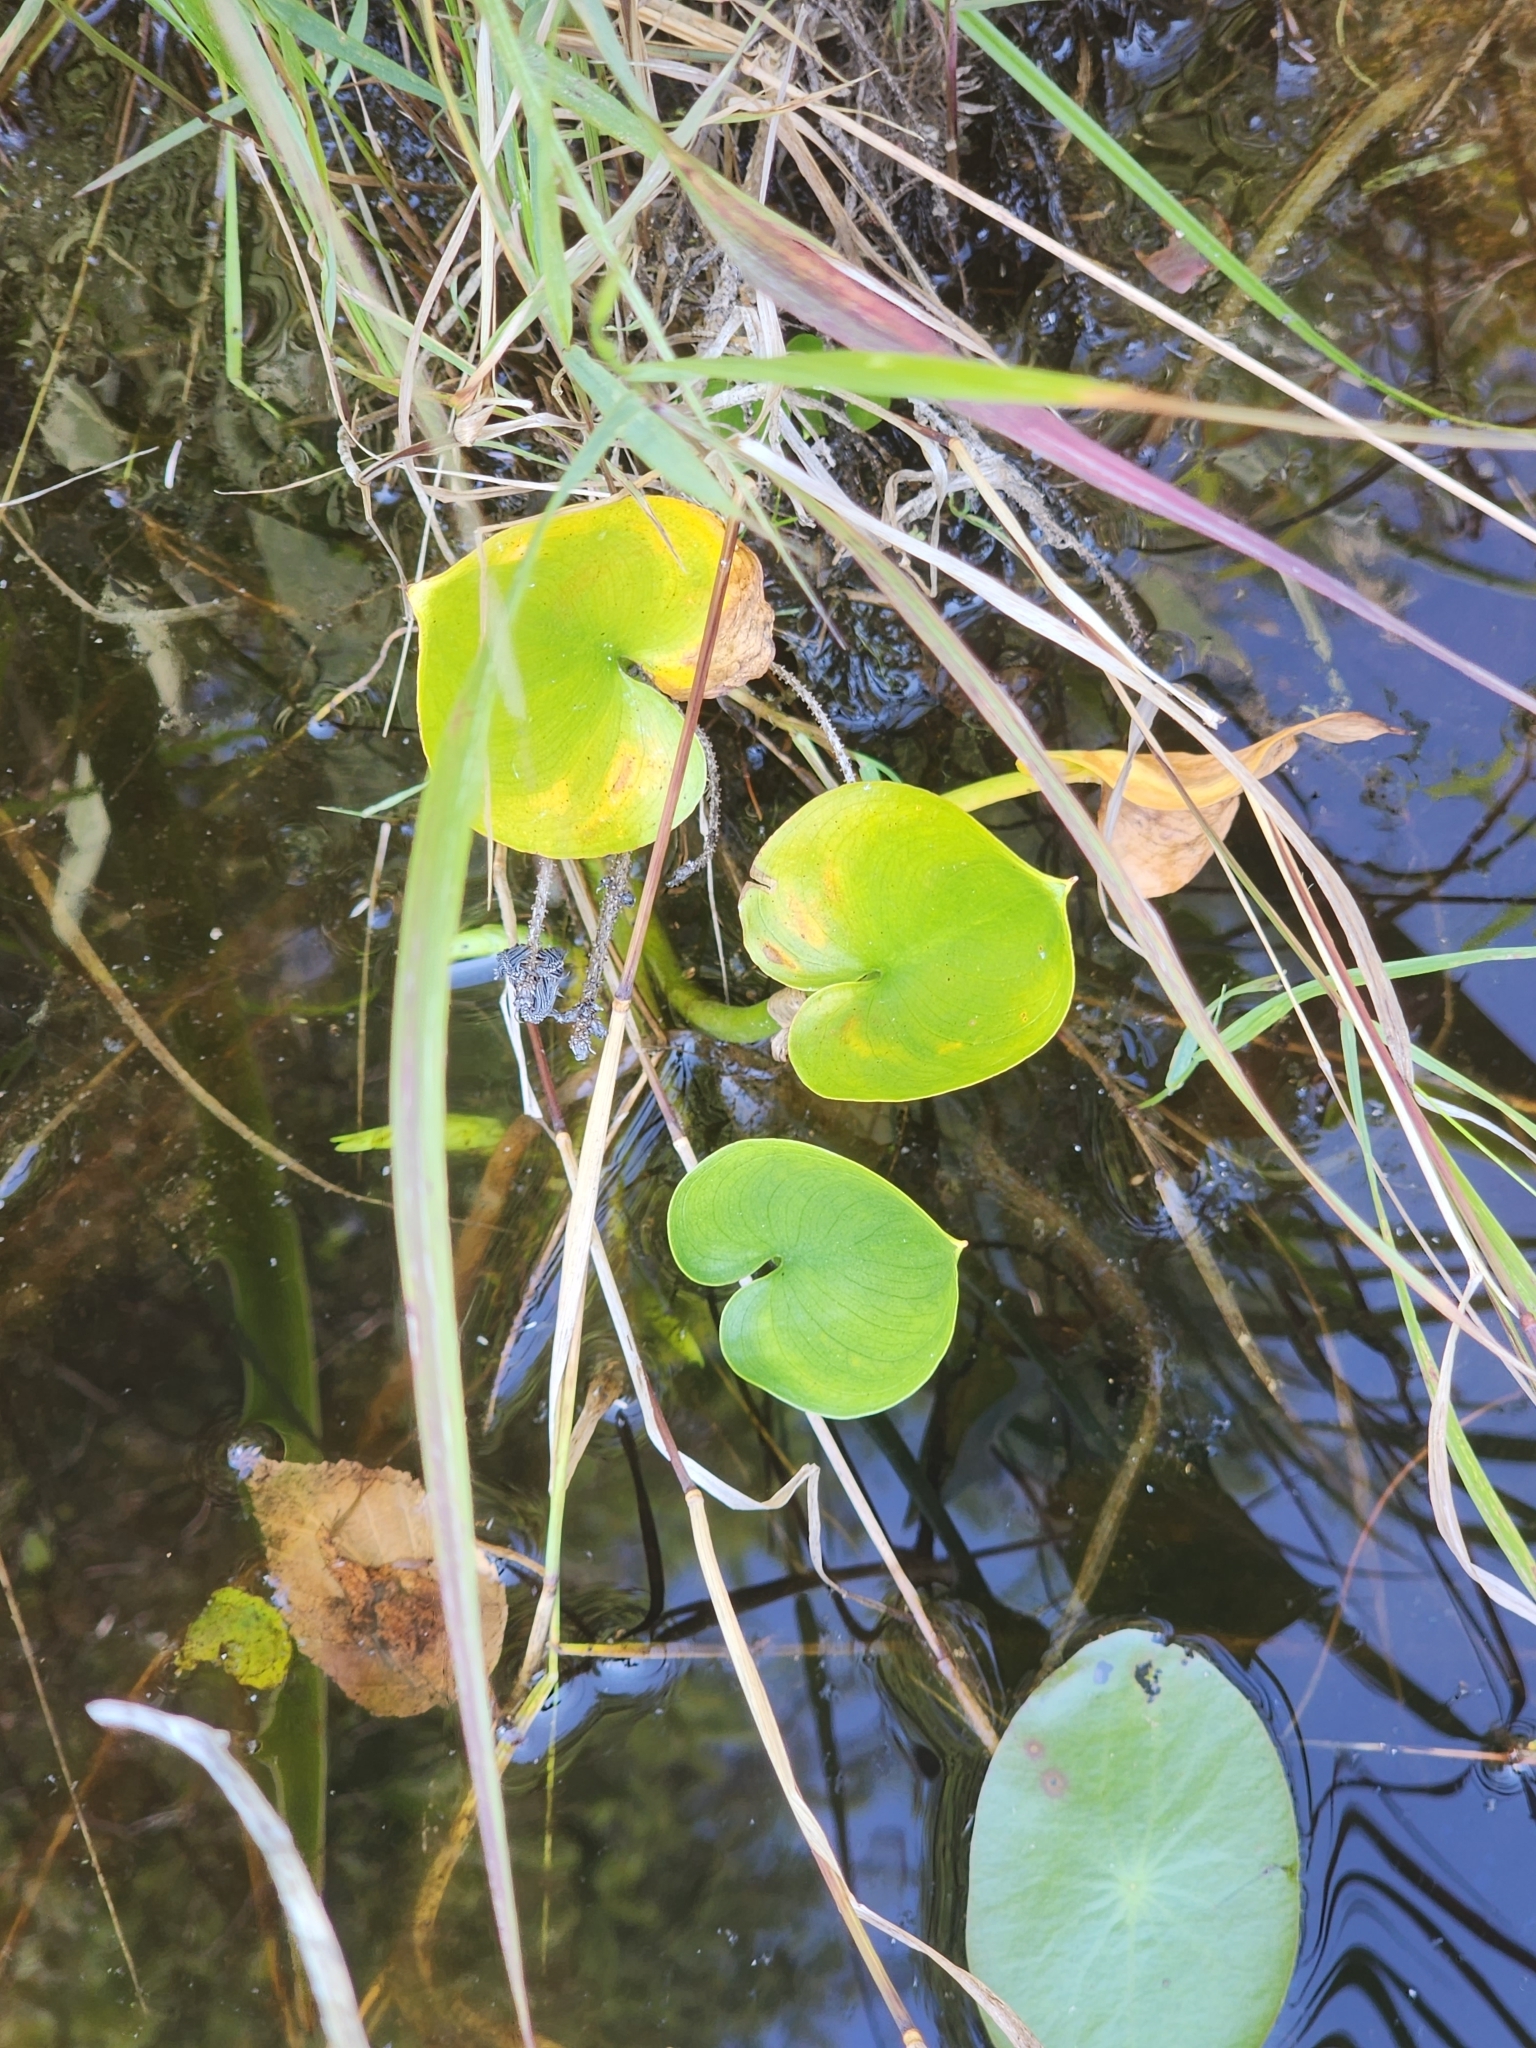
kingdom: Plantae
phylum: Tracheophyta
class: Liliopsida
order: Alismatales
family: Araceae
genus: Calla
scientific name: Calla palustris
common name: Bog arum
